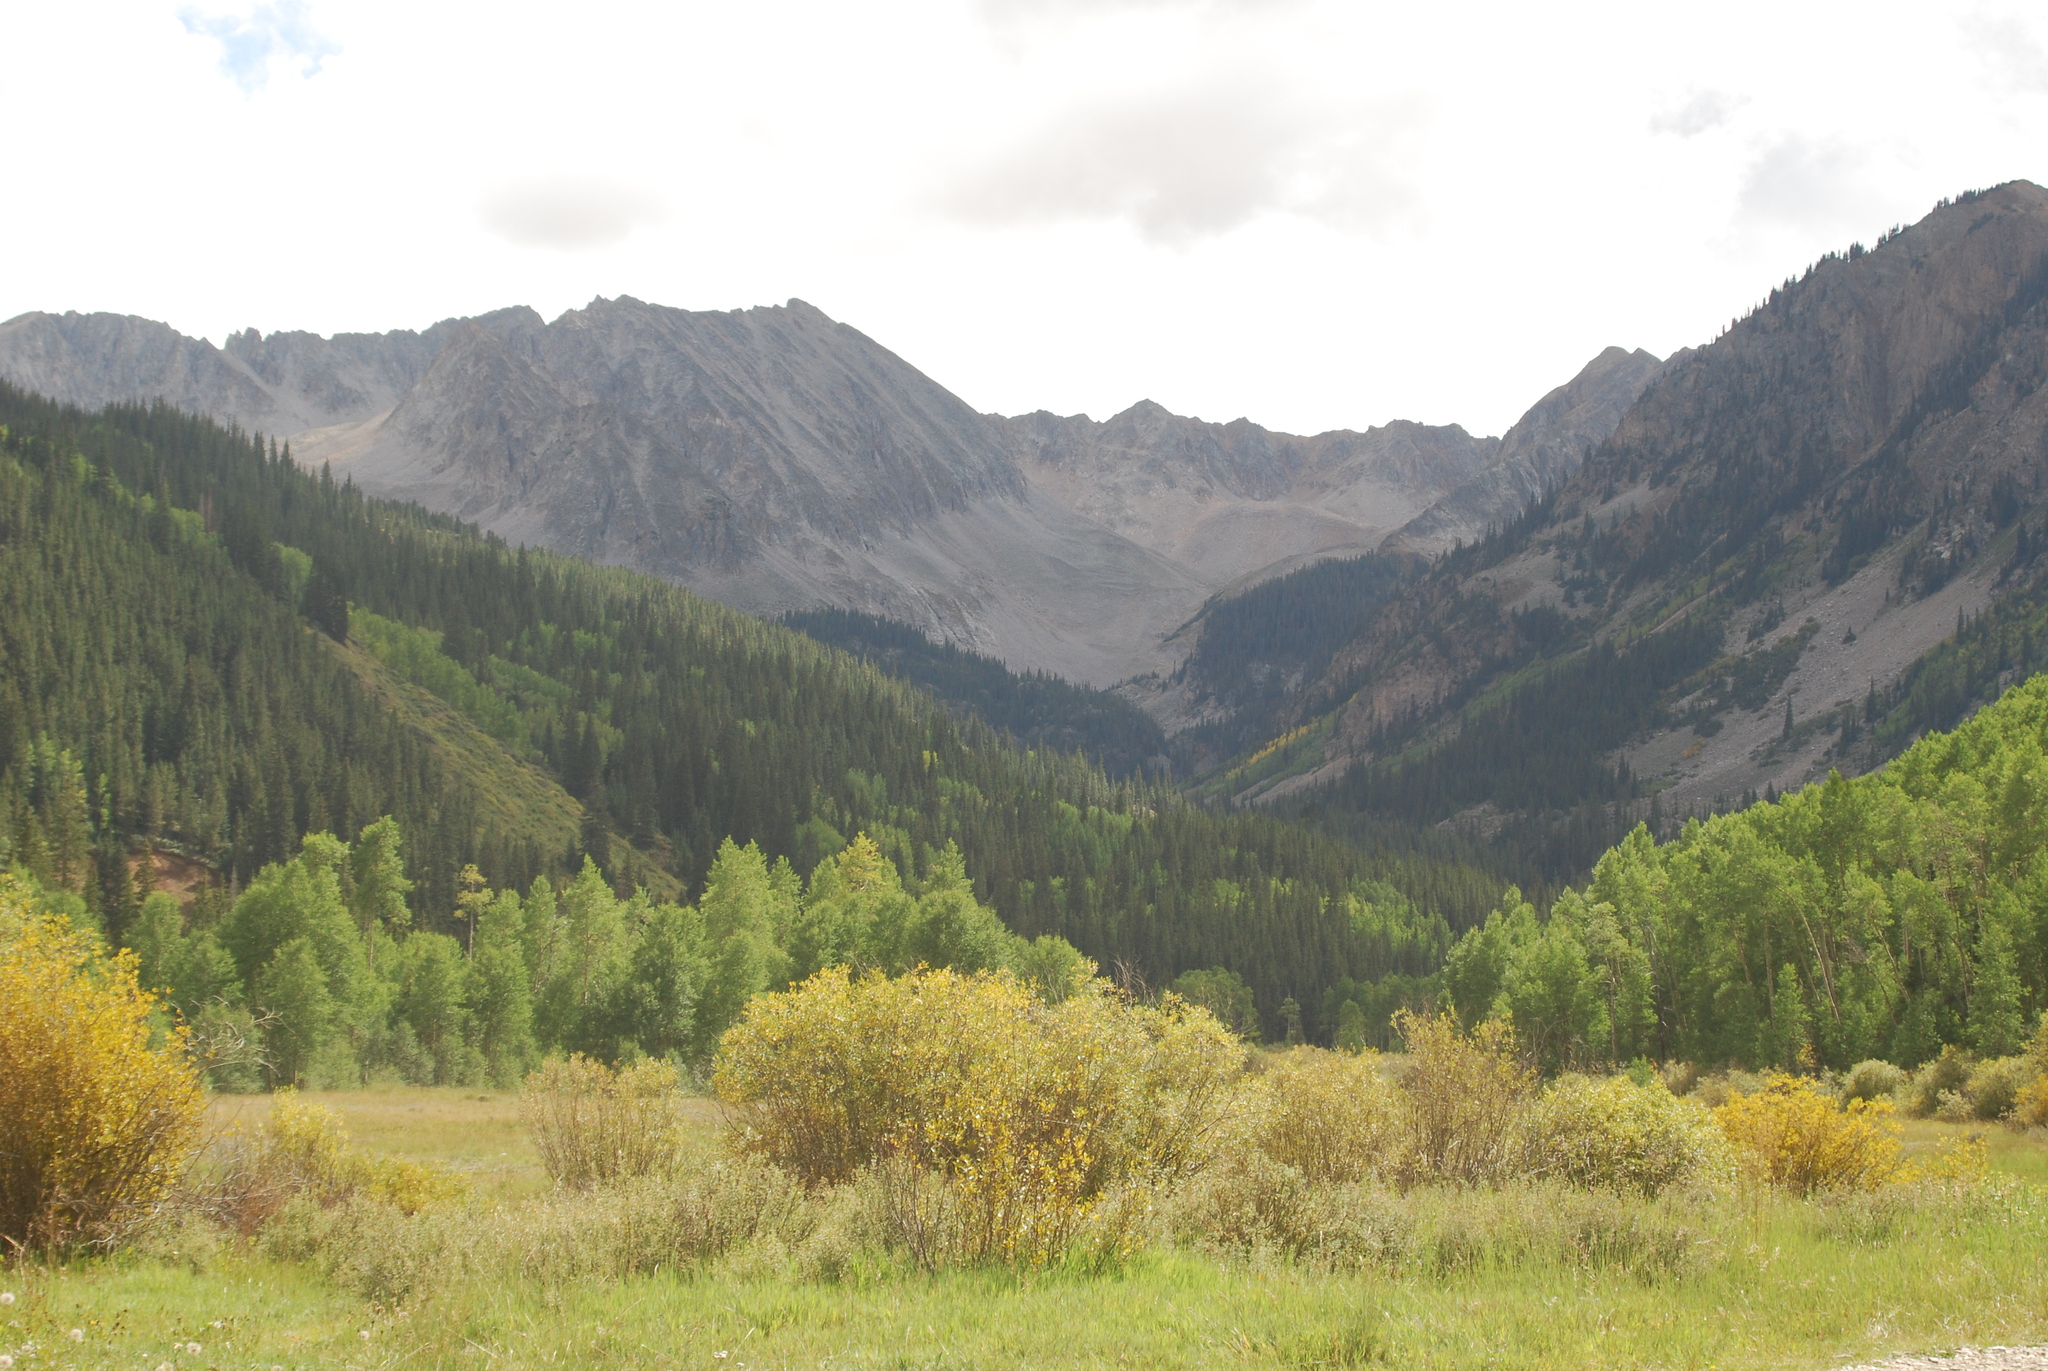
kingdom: Plantae
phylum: Tracheophyta
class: Magnoliopsida
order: Malpighiales
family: Salicaceae
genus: Populus
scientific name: Populus tremuloides
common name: Quaking aspen
